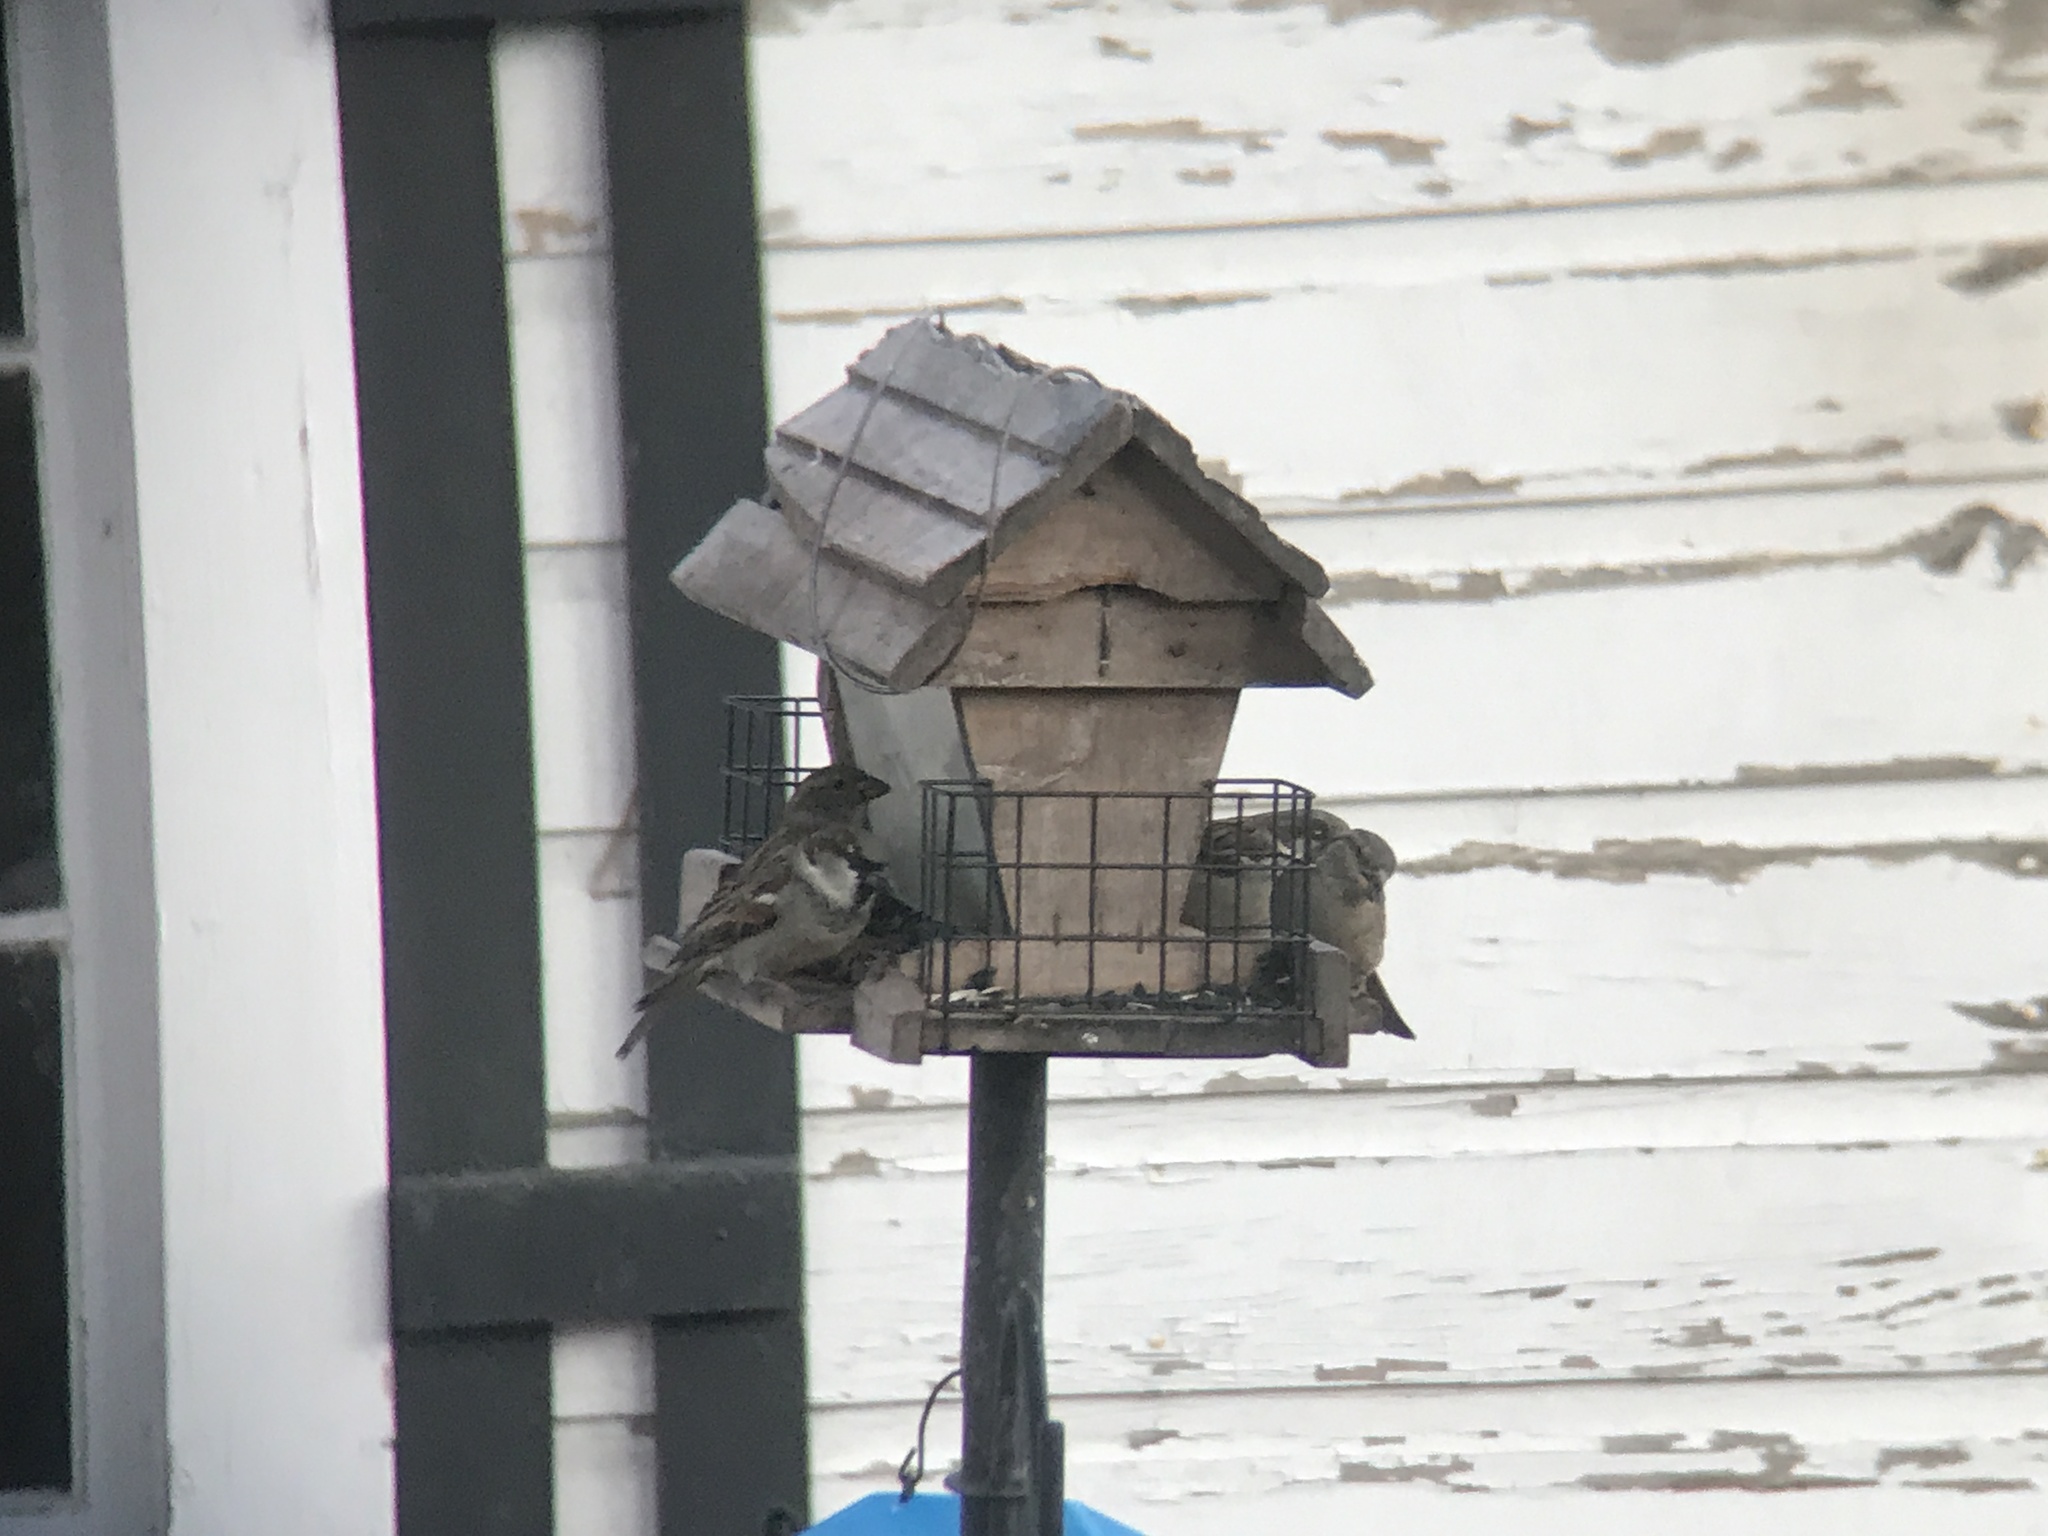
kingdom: Animalia
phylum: Chordata
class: Aves
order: Passeriformes
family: Passeridae
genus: Passer
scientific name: Passer domesticus
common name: House sparrow
